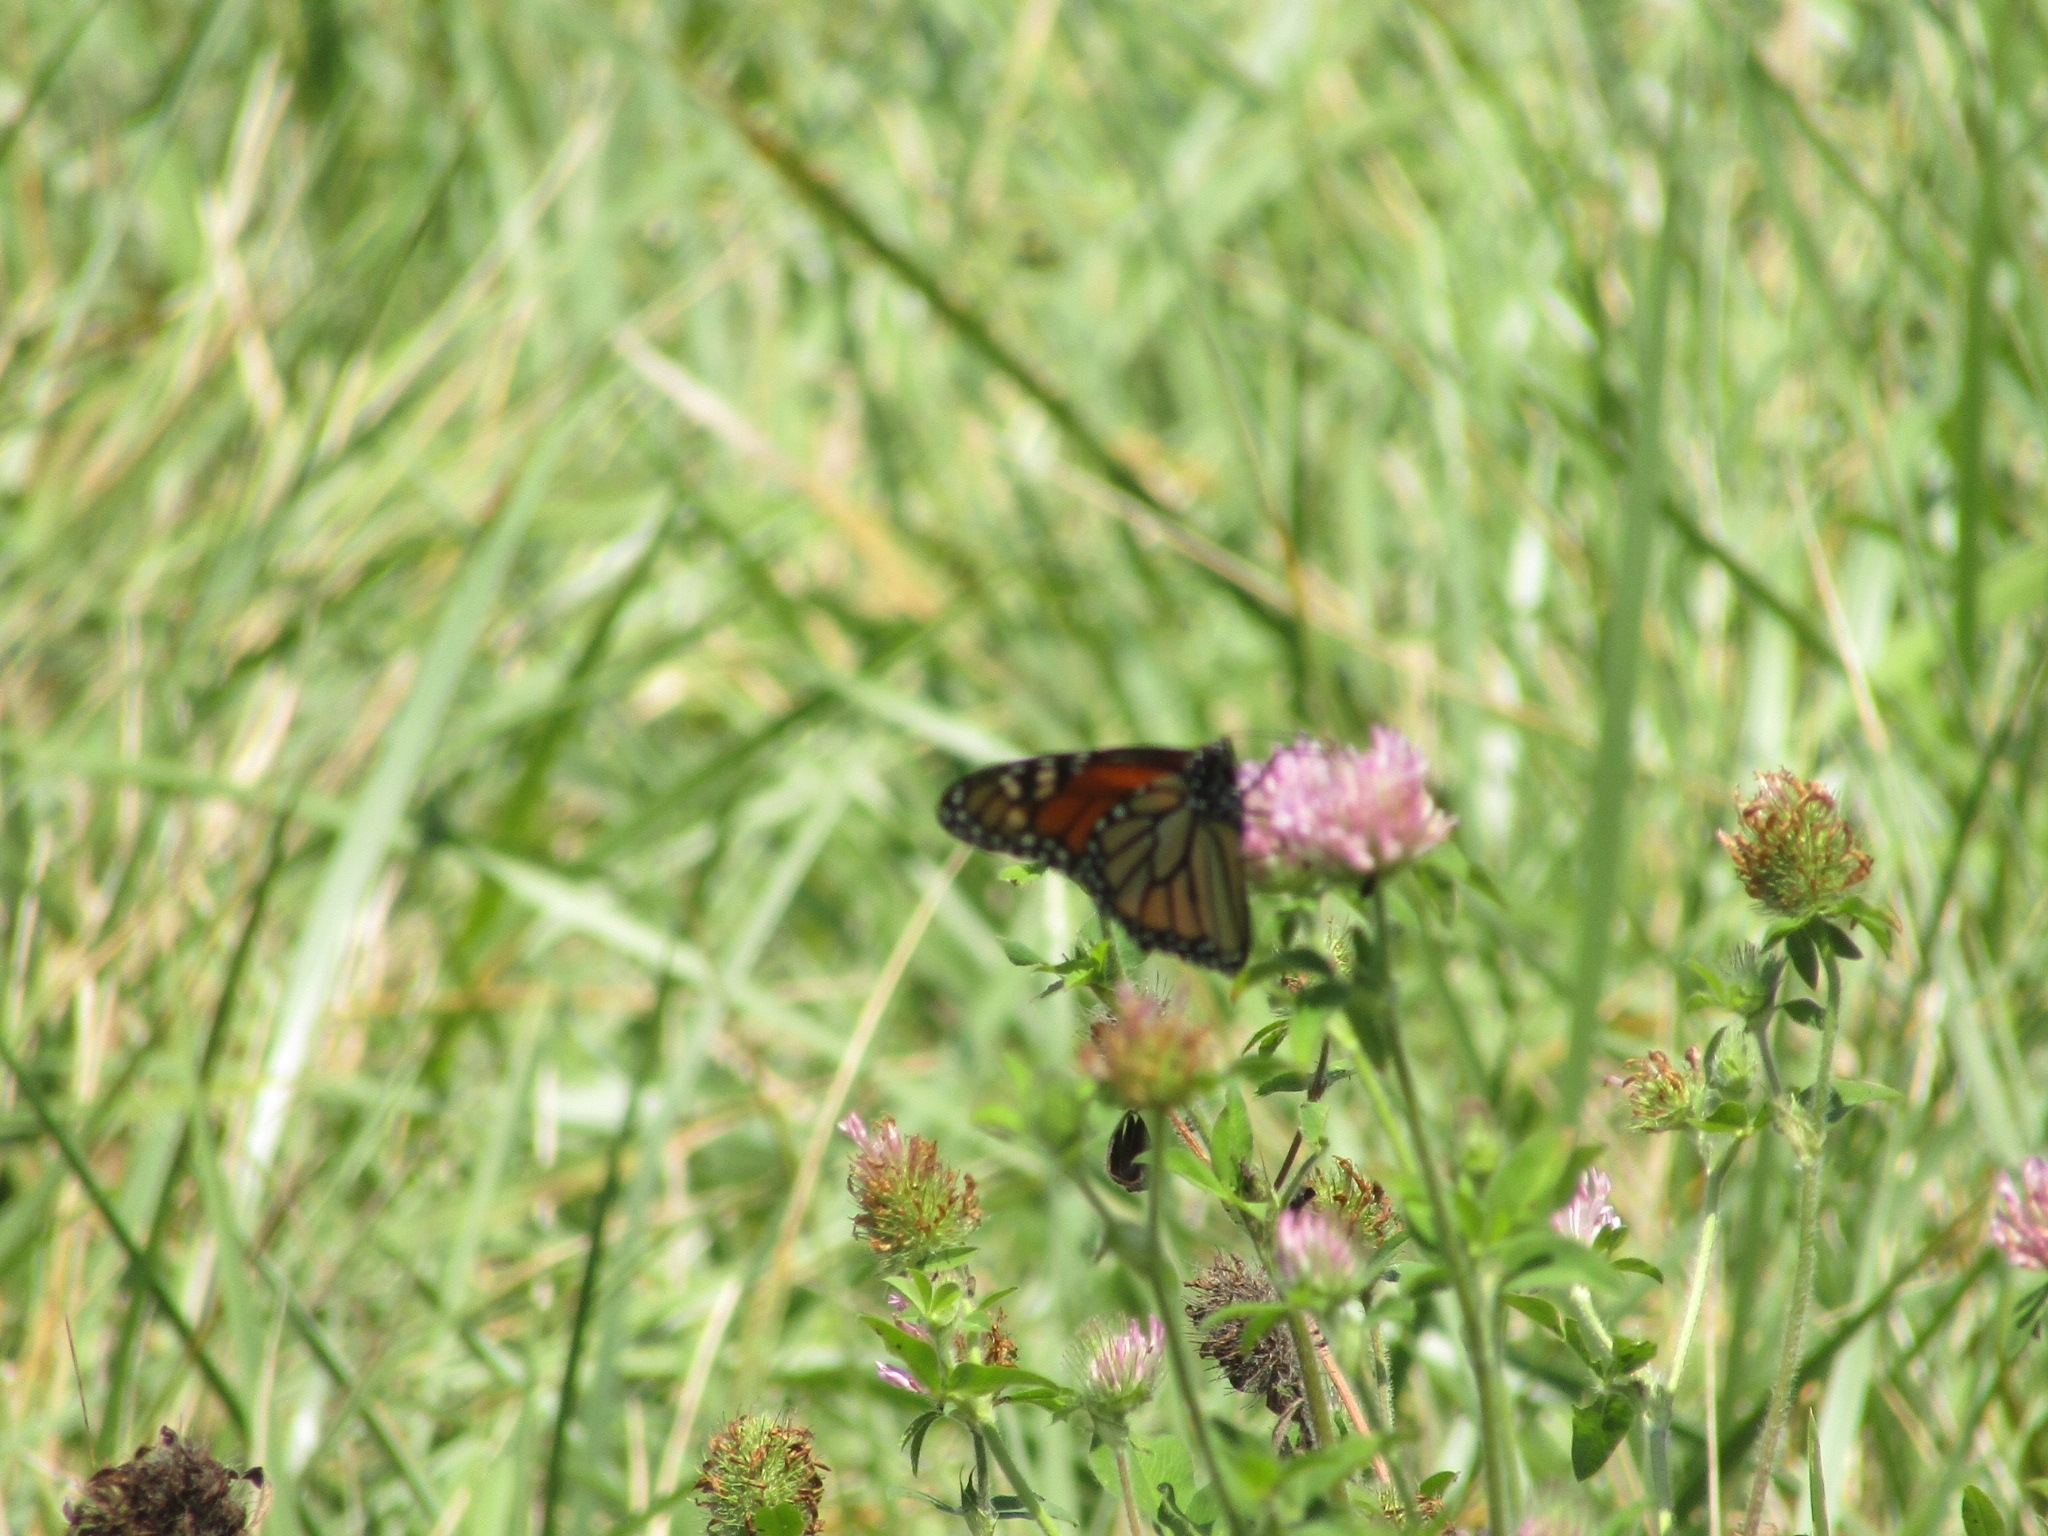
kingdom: Animalia
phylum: Arthropoda
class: Insecta
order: Lepidoptera
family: Nymphalidae
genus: Danaus
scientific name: Danaus plexippus
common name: Monarch
